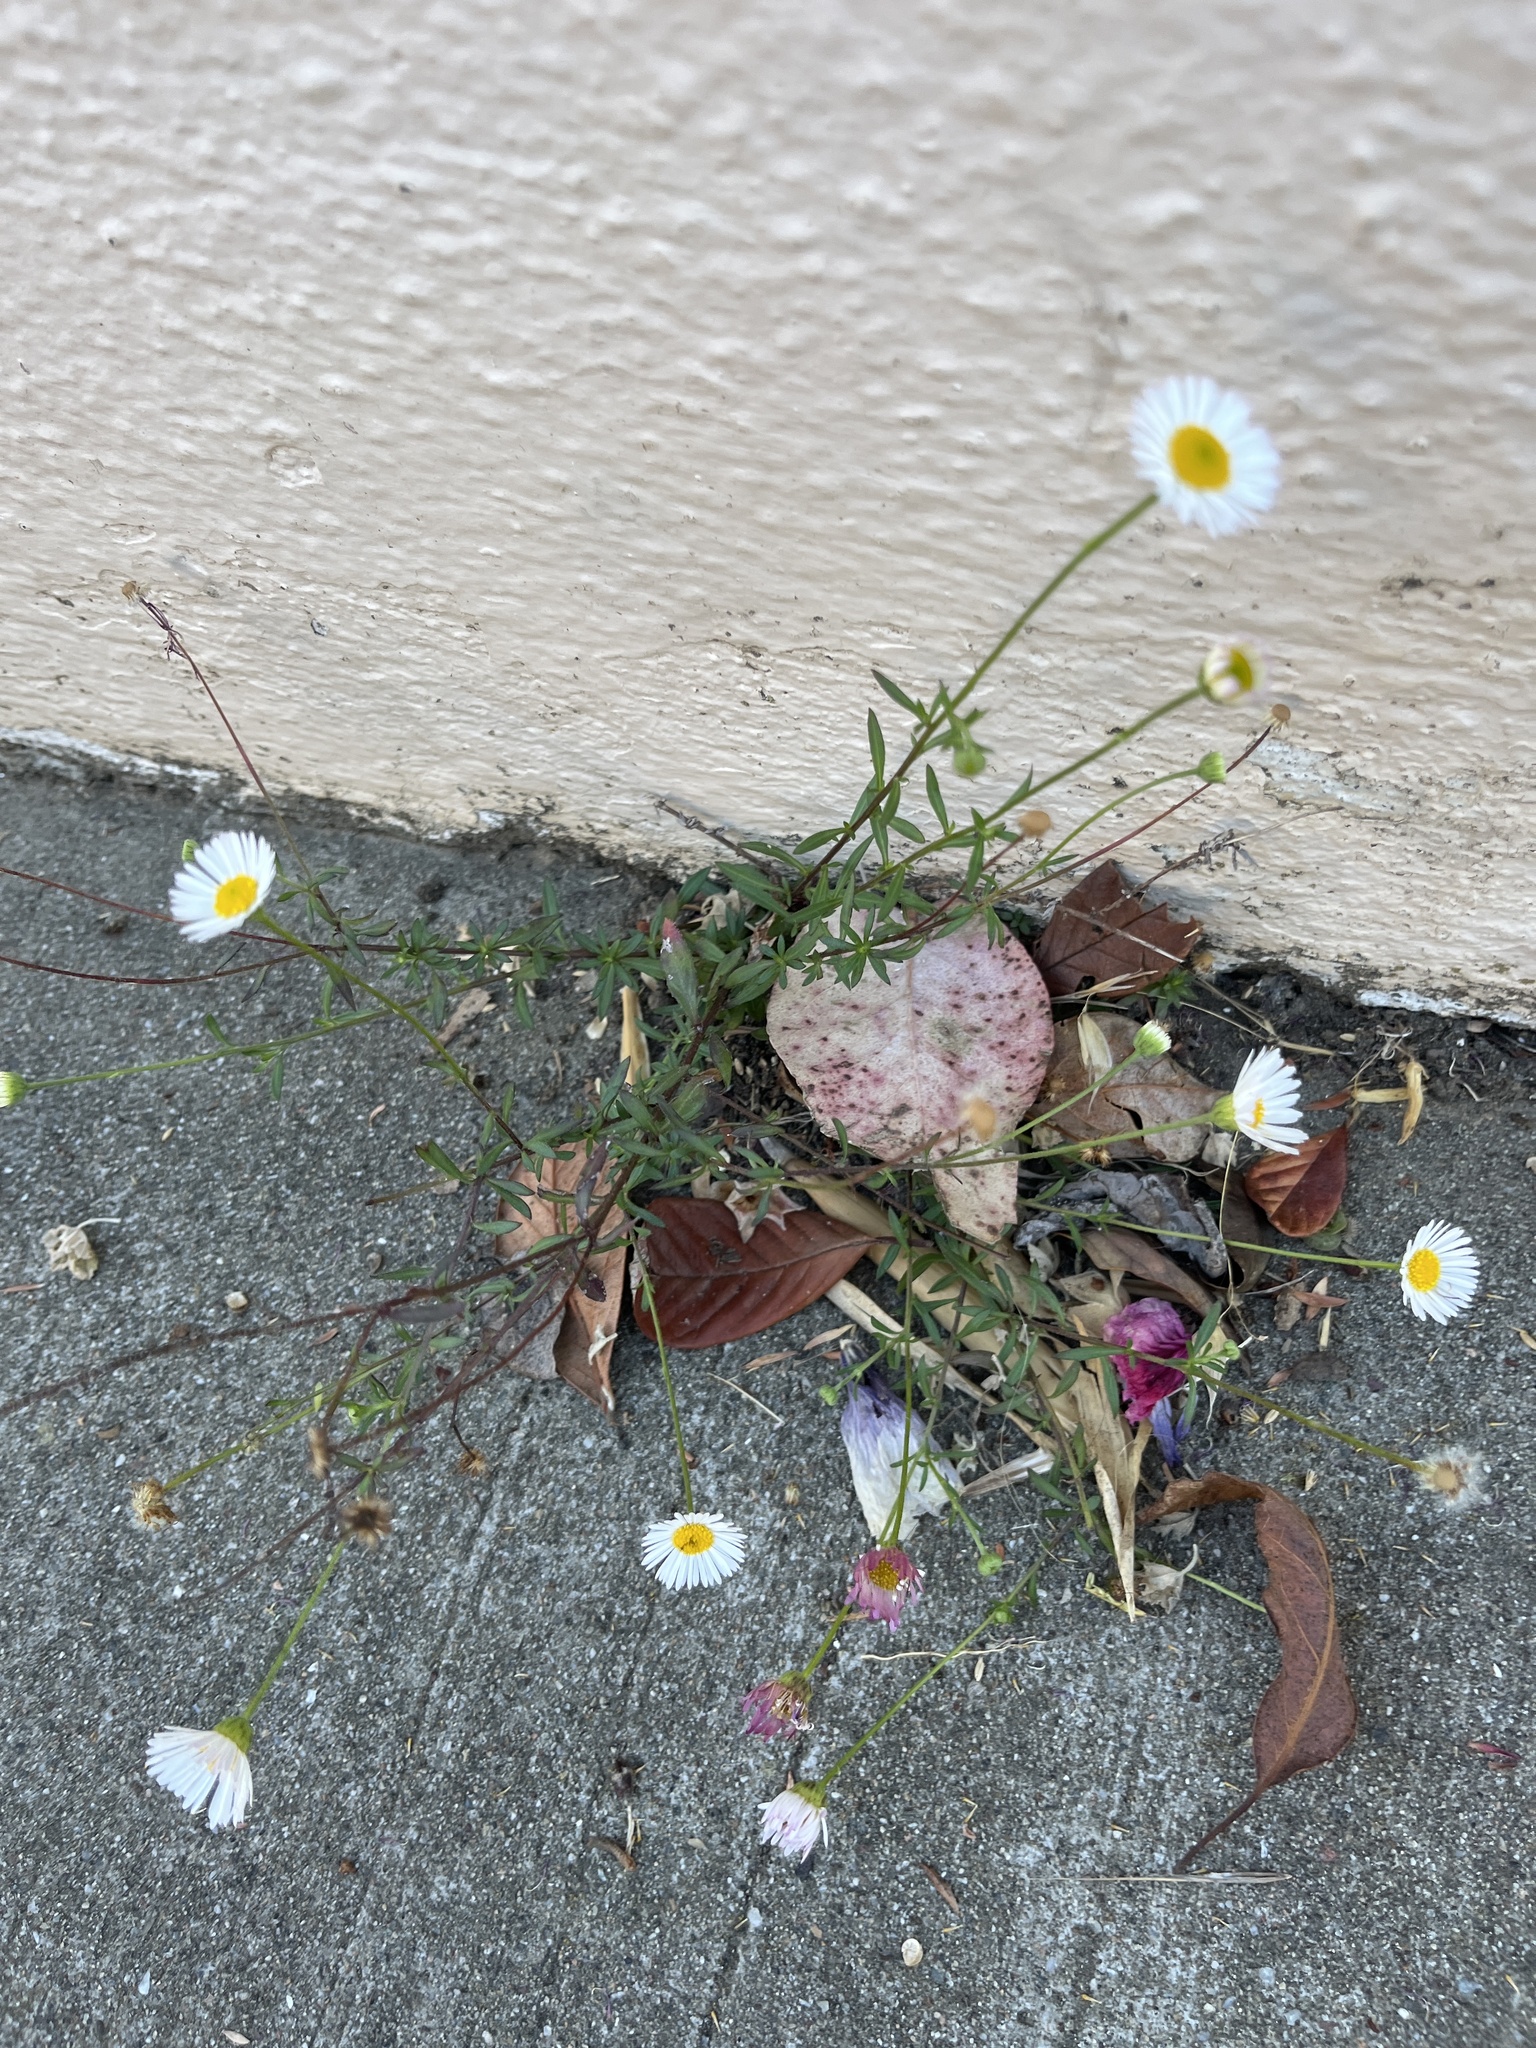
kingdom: Plantae
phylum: Tracheophyta
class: Magnoliopsida
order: Asterales
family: Asteraceae
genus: Erigeron
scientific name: Erigeron karvinskianus
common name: Mexican fleabane
